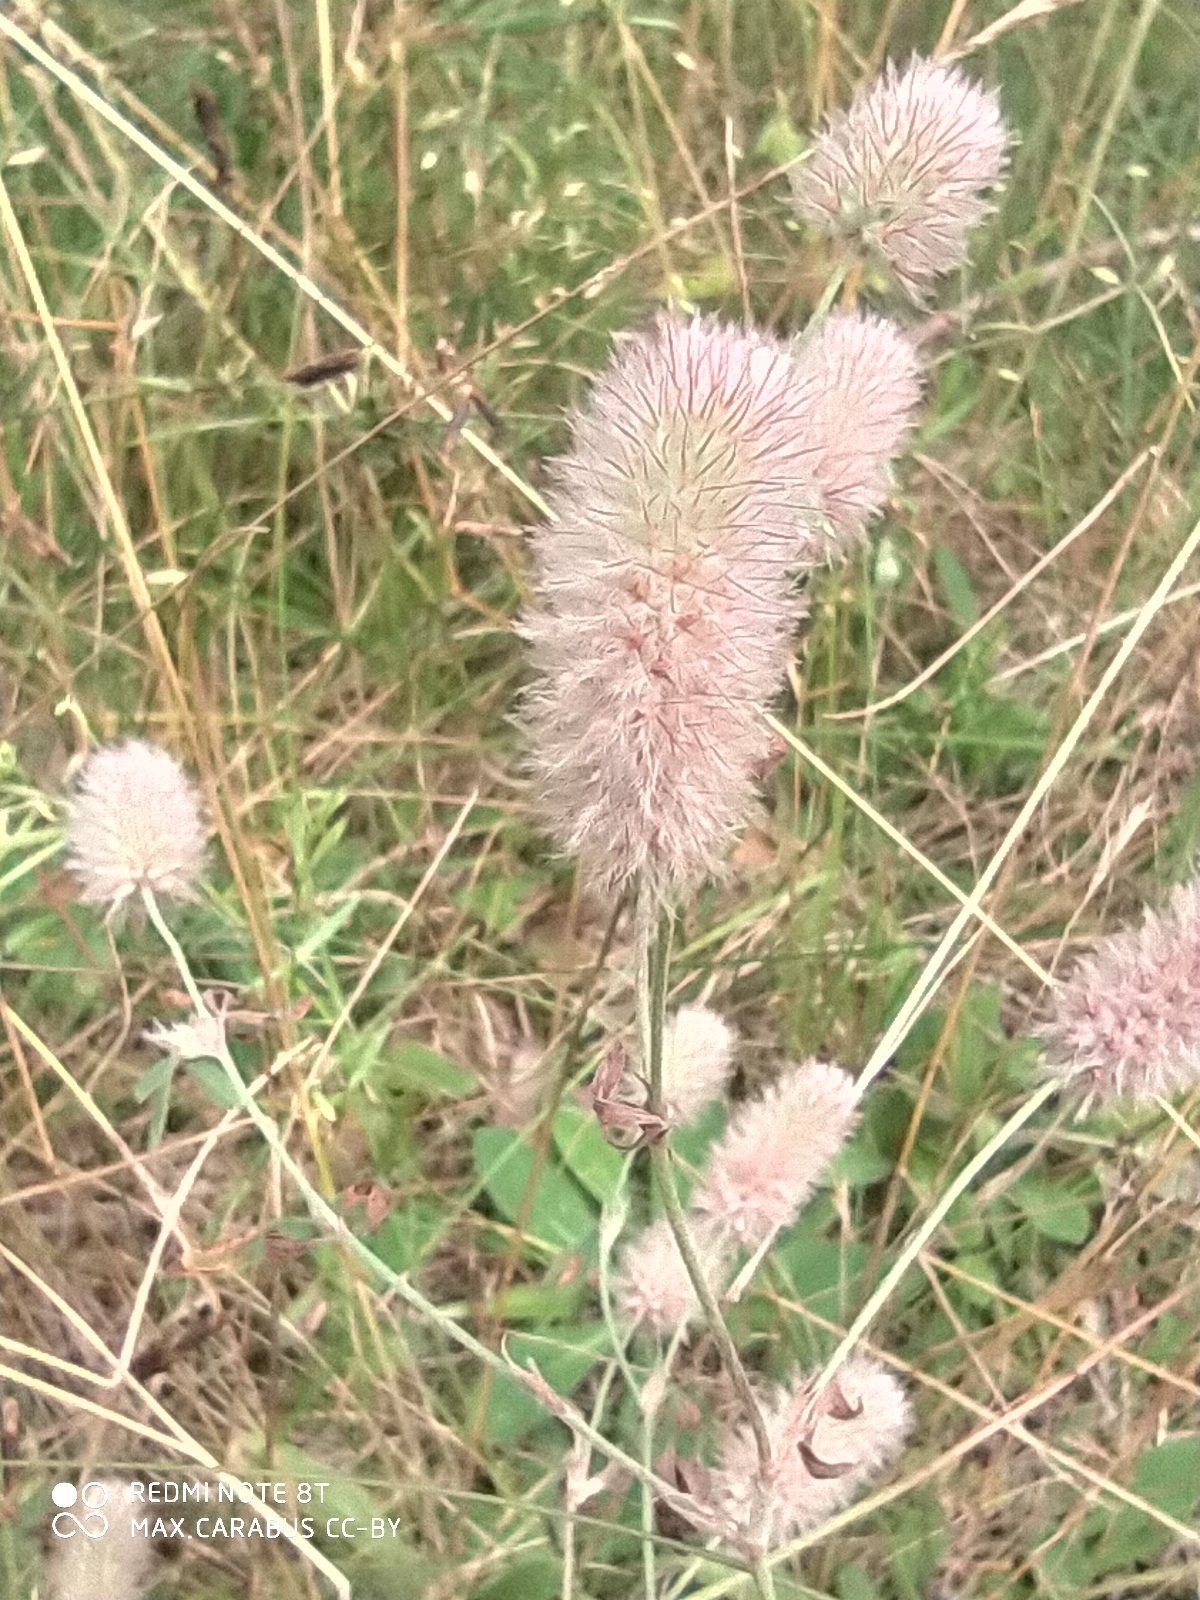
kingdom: Plantae
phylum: Tracheophyta
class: Magnoliopsida
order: Fabales
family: Fabaceae
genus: Trifolium
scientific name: Trifolium arvense
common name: Hare's-foot clover
